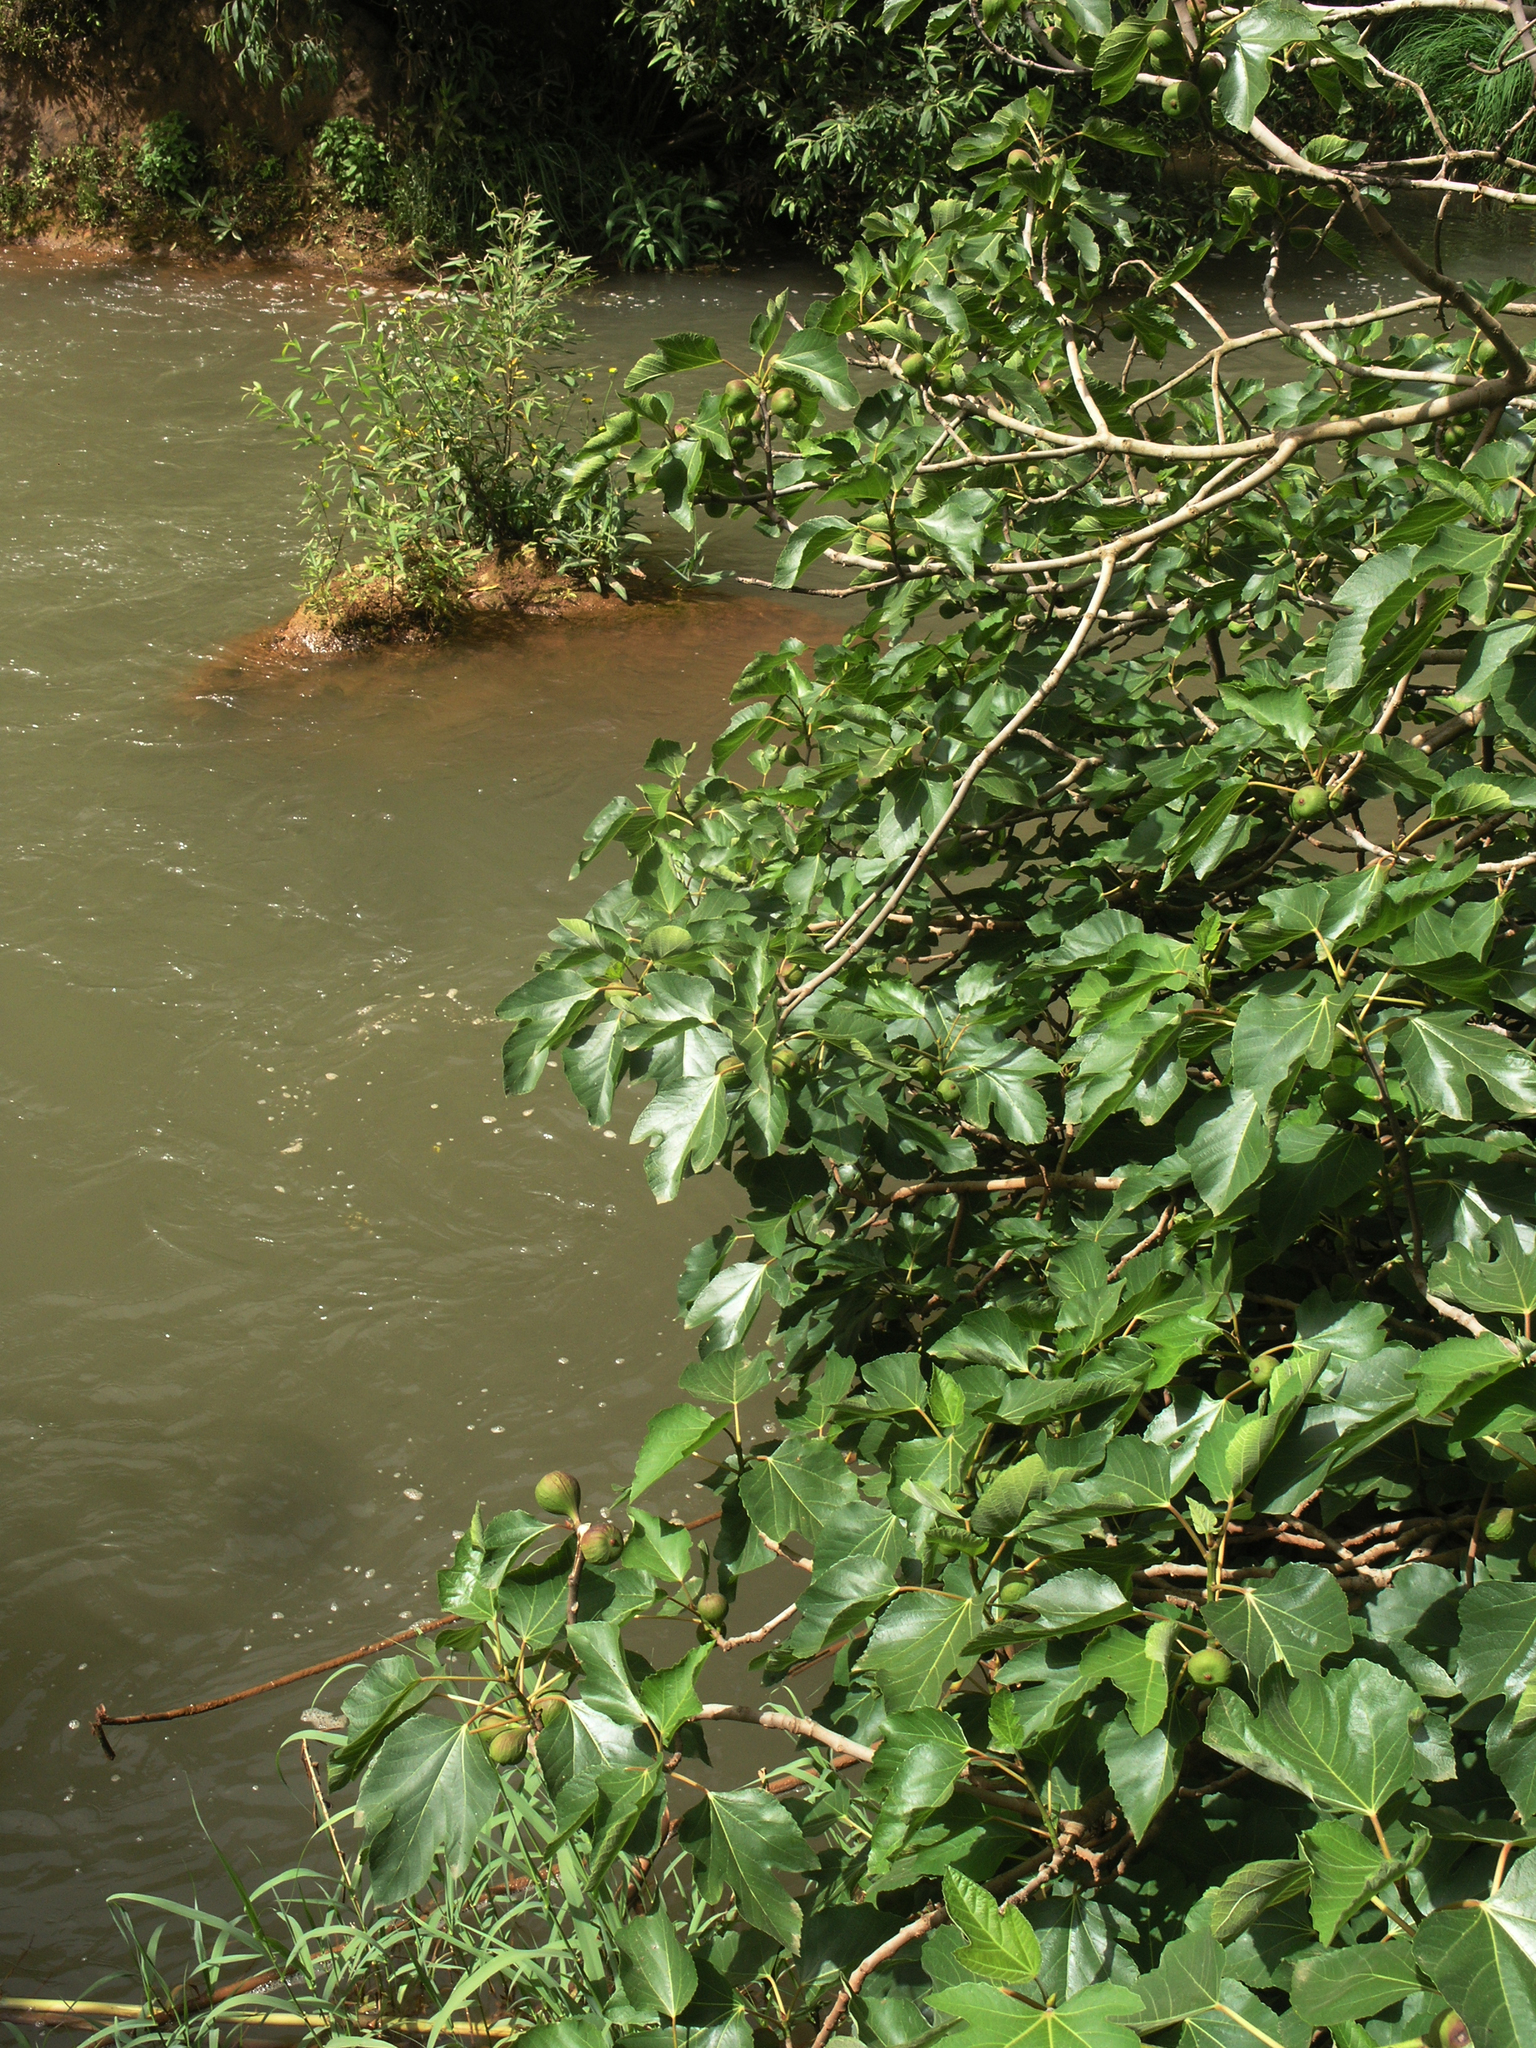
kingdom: Plantae
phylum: Tracheophyta
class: Magnoliopsida
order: Rosales
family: Moraceae
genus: Ficus
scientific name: Ficus carica
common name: Fig
